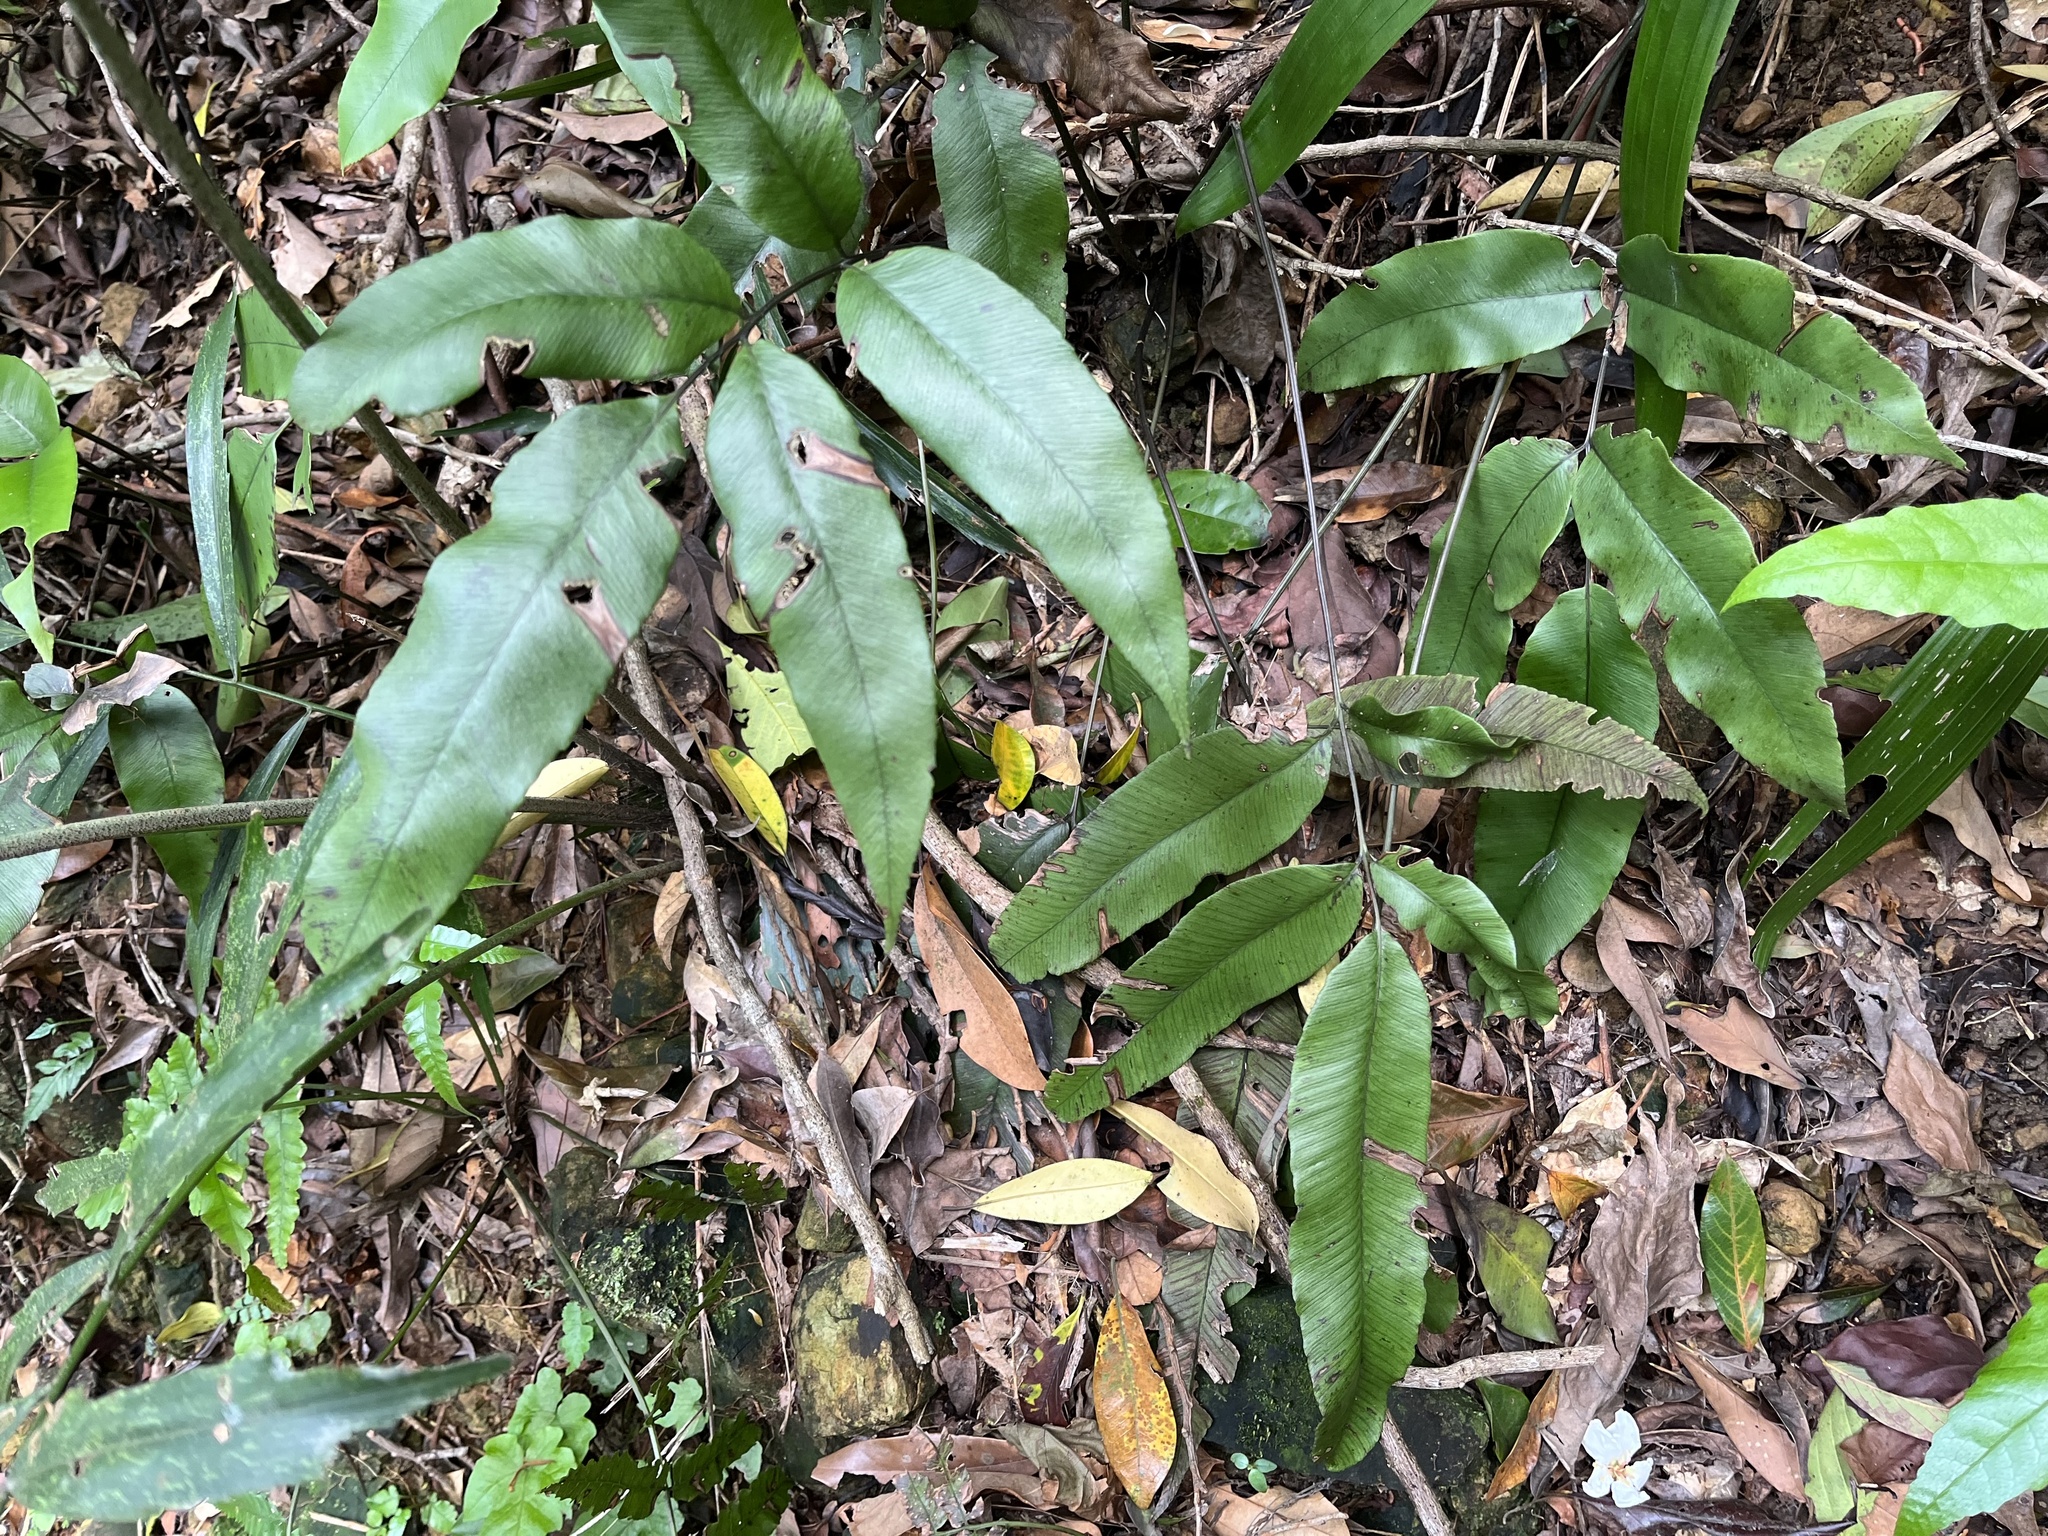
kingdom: Plantae
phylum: Tracheophyta
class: Polypodiopsida
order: Polypodiales
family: Athyriaceae
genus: Diplazium
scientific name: Diplazium lineolatum
